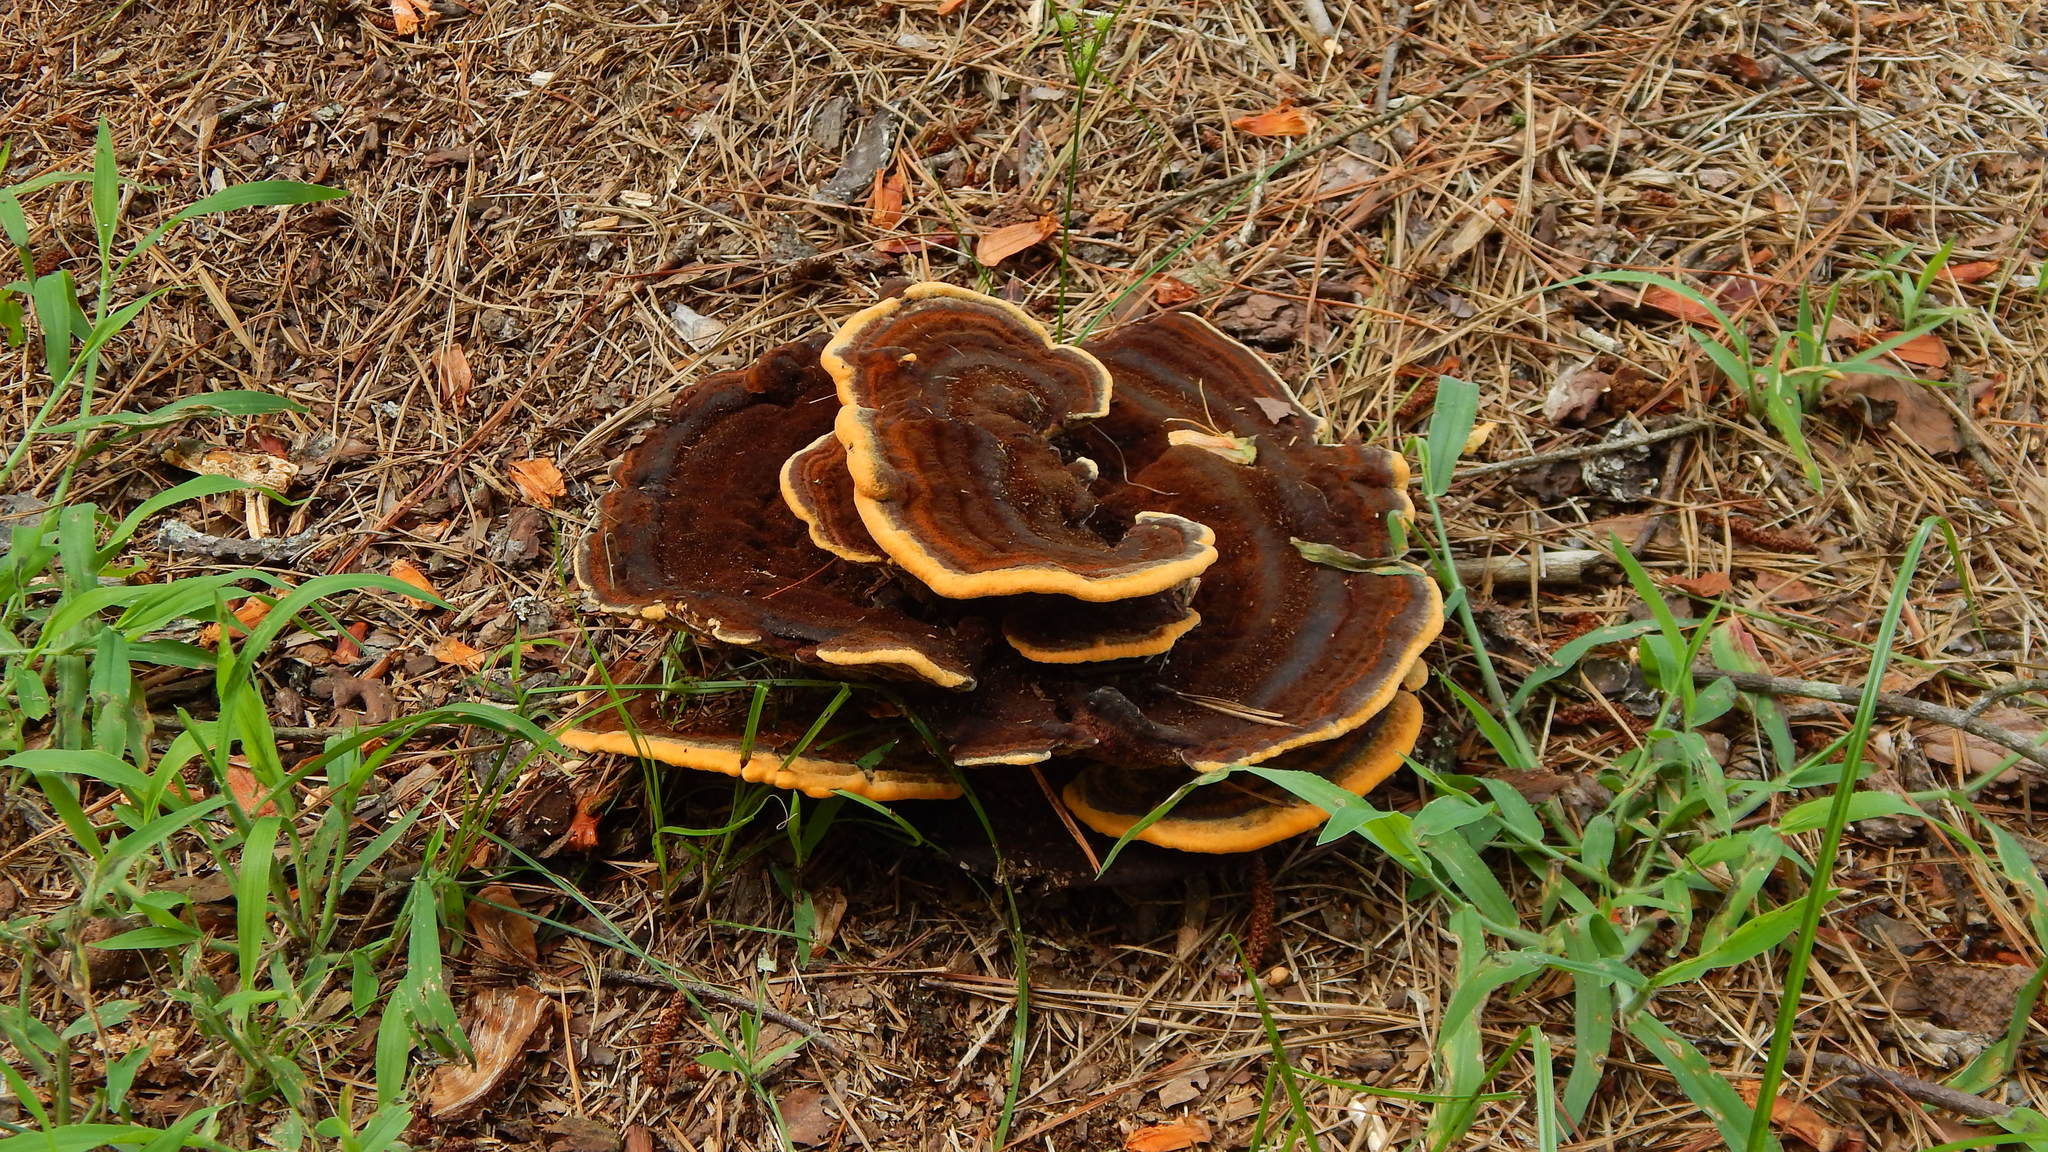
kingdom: Fungi
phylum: Basidiomycota
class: Agaricomycetes
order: Polyporales
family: Laetiporaceae
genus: Phaeolus
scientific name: Phaeolus schweinitzii
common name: Dyer's mazegill
